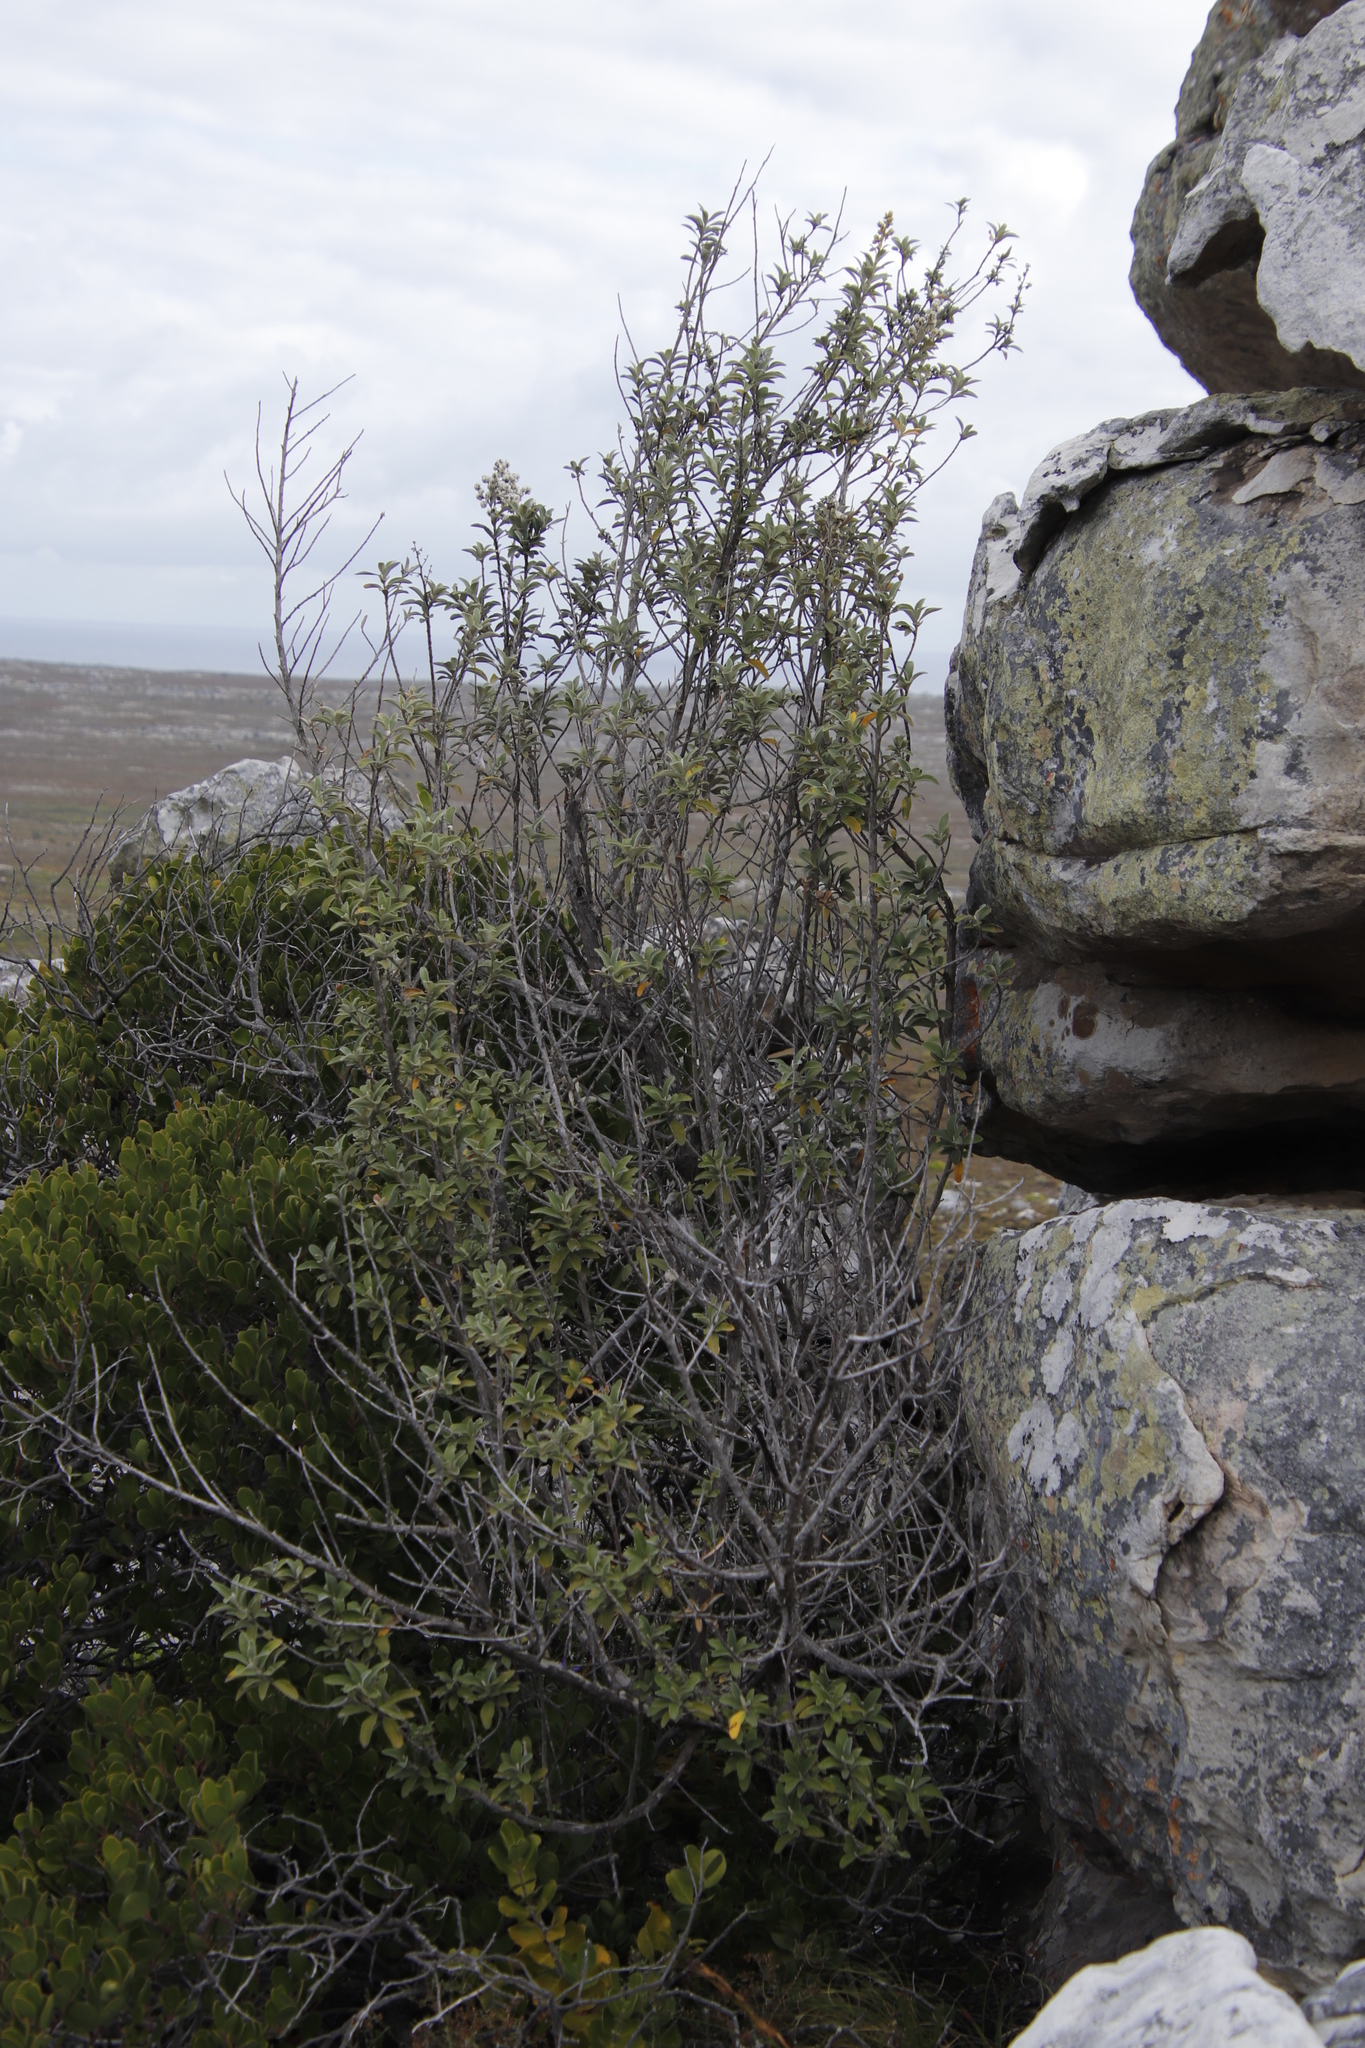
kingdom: Plantae
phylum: Tracheophyta
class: Magnoliopsida
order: Asterales
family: Asteraceae
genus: Tarchonanthus
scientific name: Tarchonanthus littoralis
